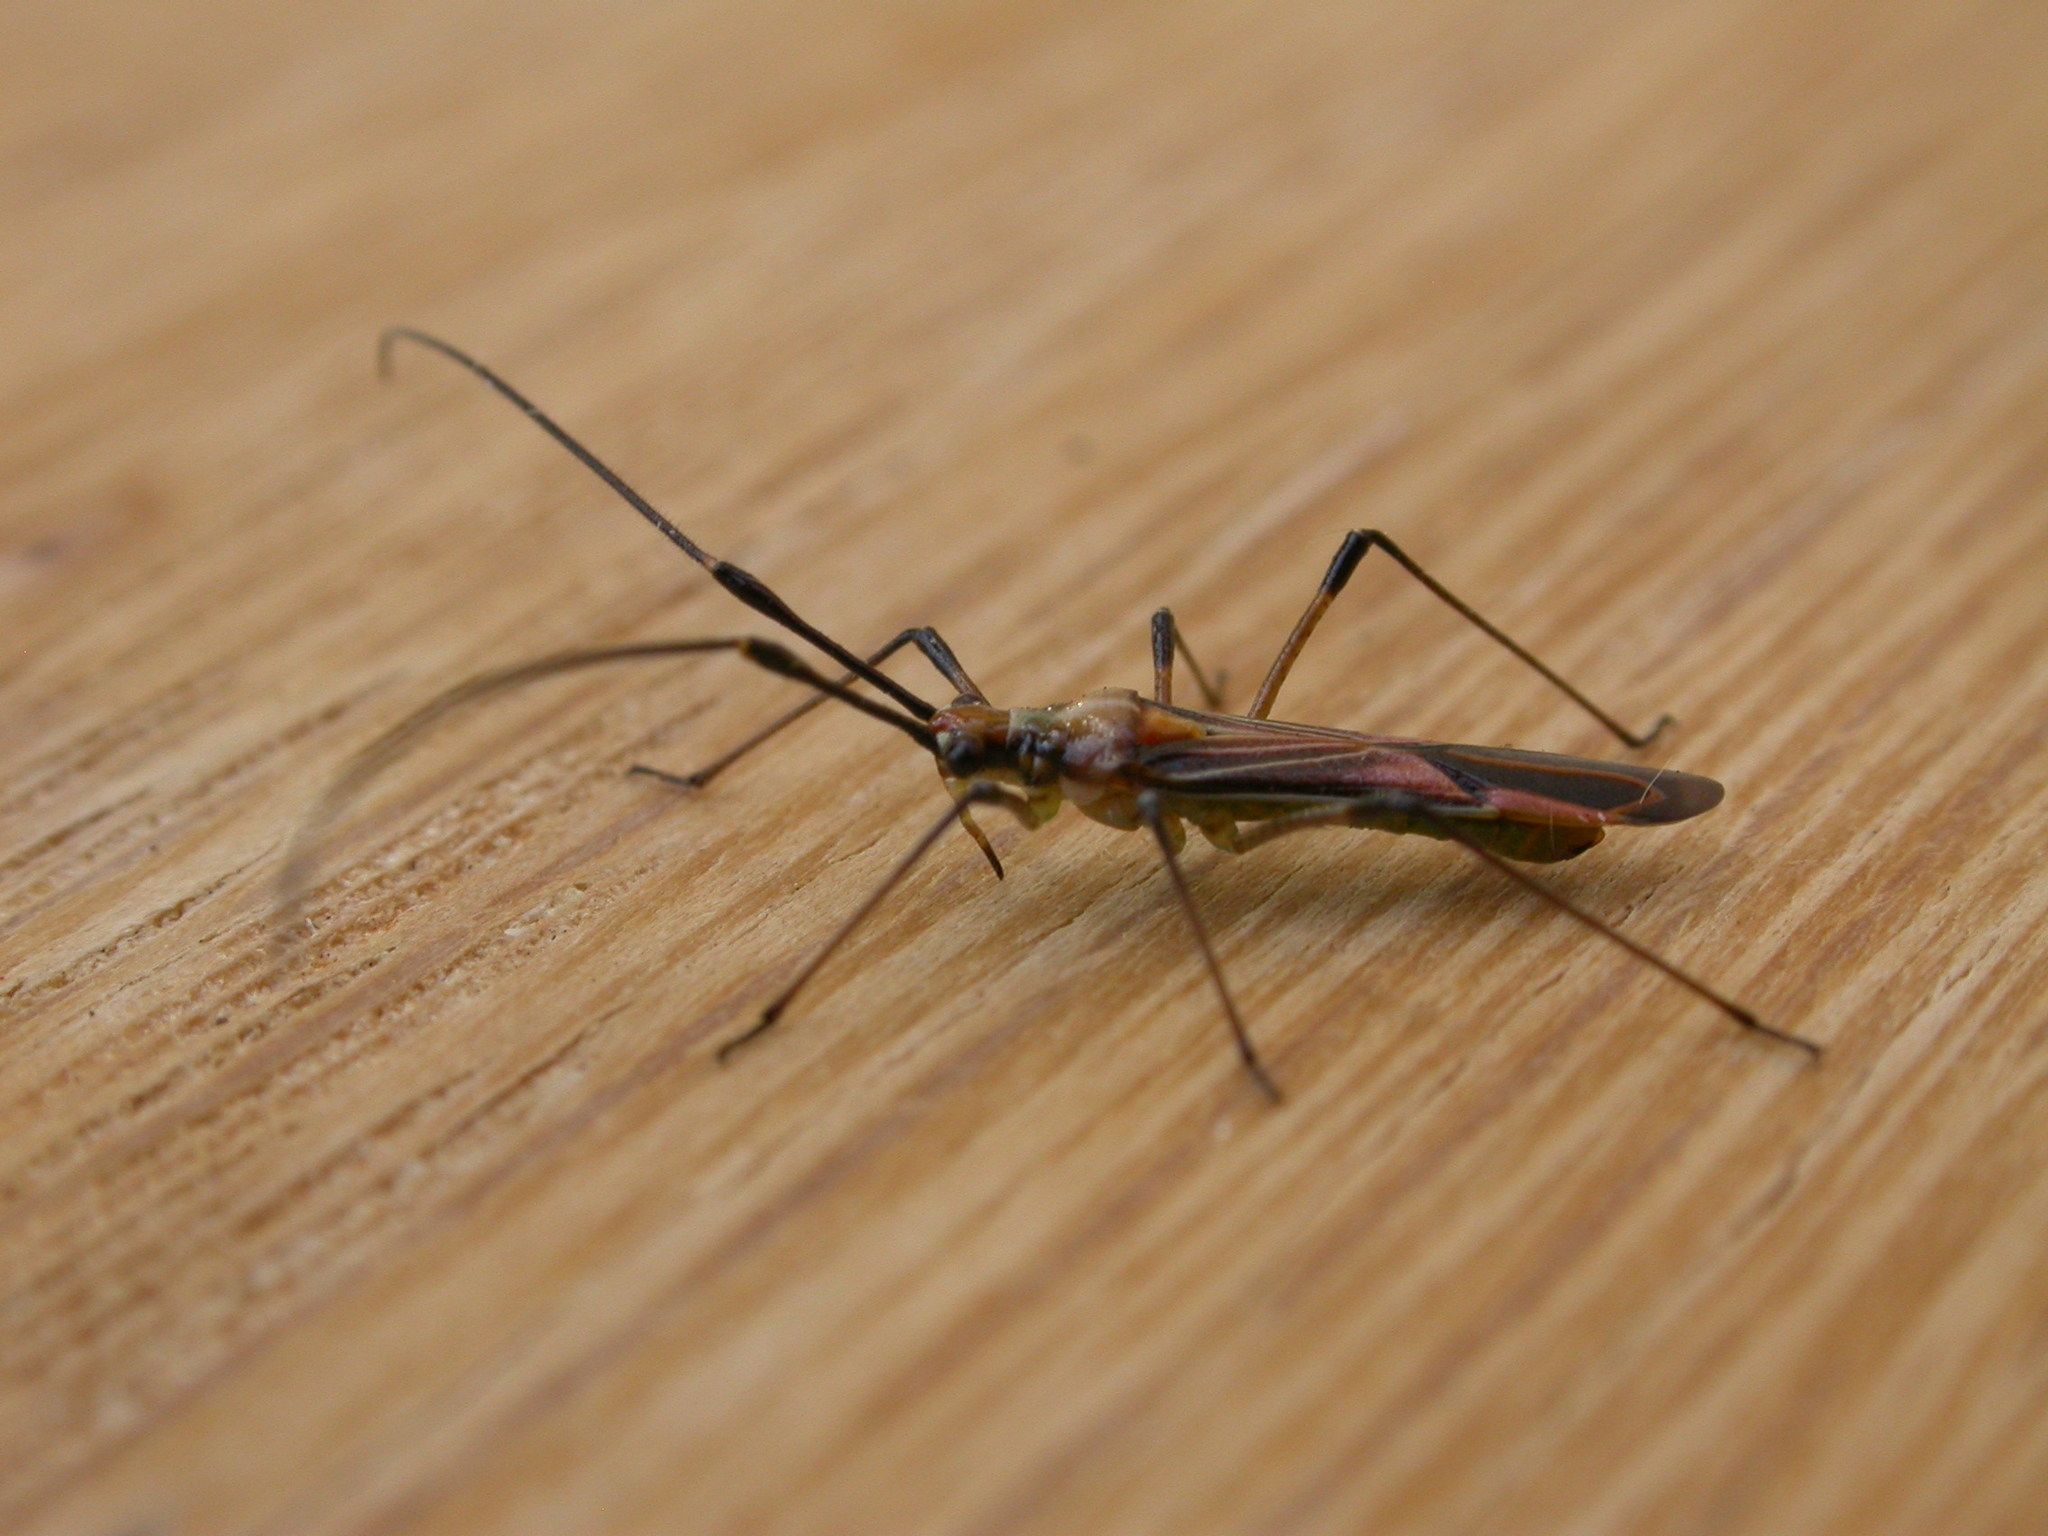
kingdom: Animalia
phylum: Arthropoda
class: Insecta
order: Hemiptera
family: Miridae
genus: Rayieria
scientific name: Rayieria
